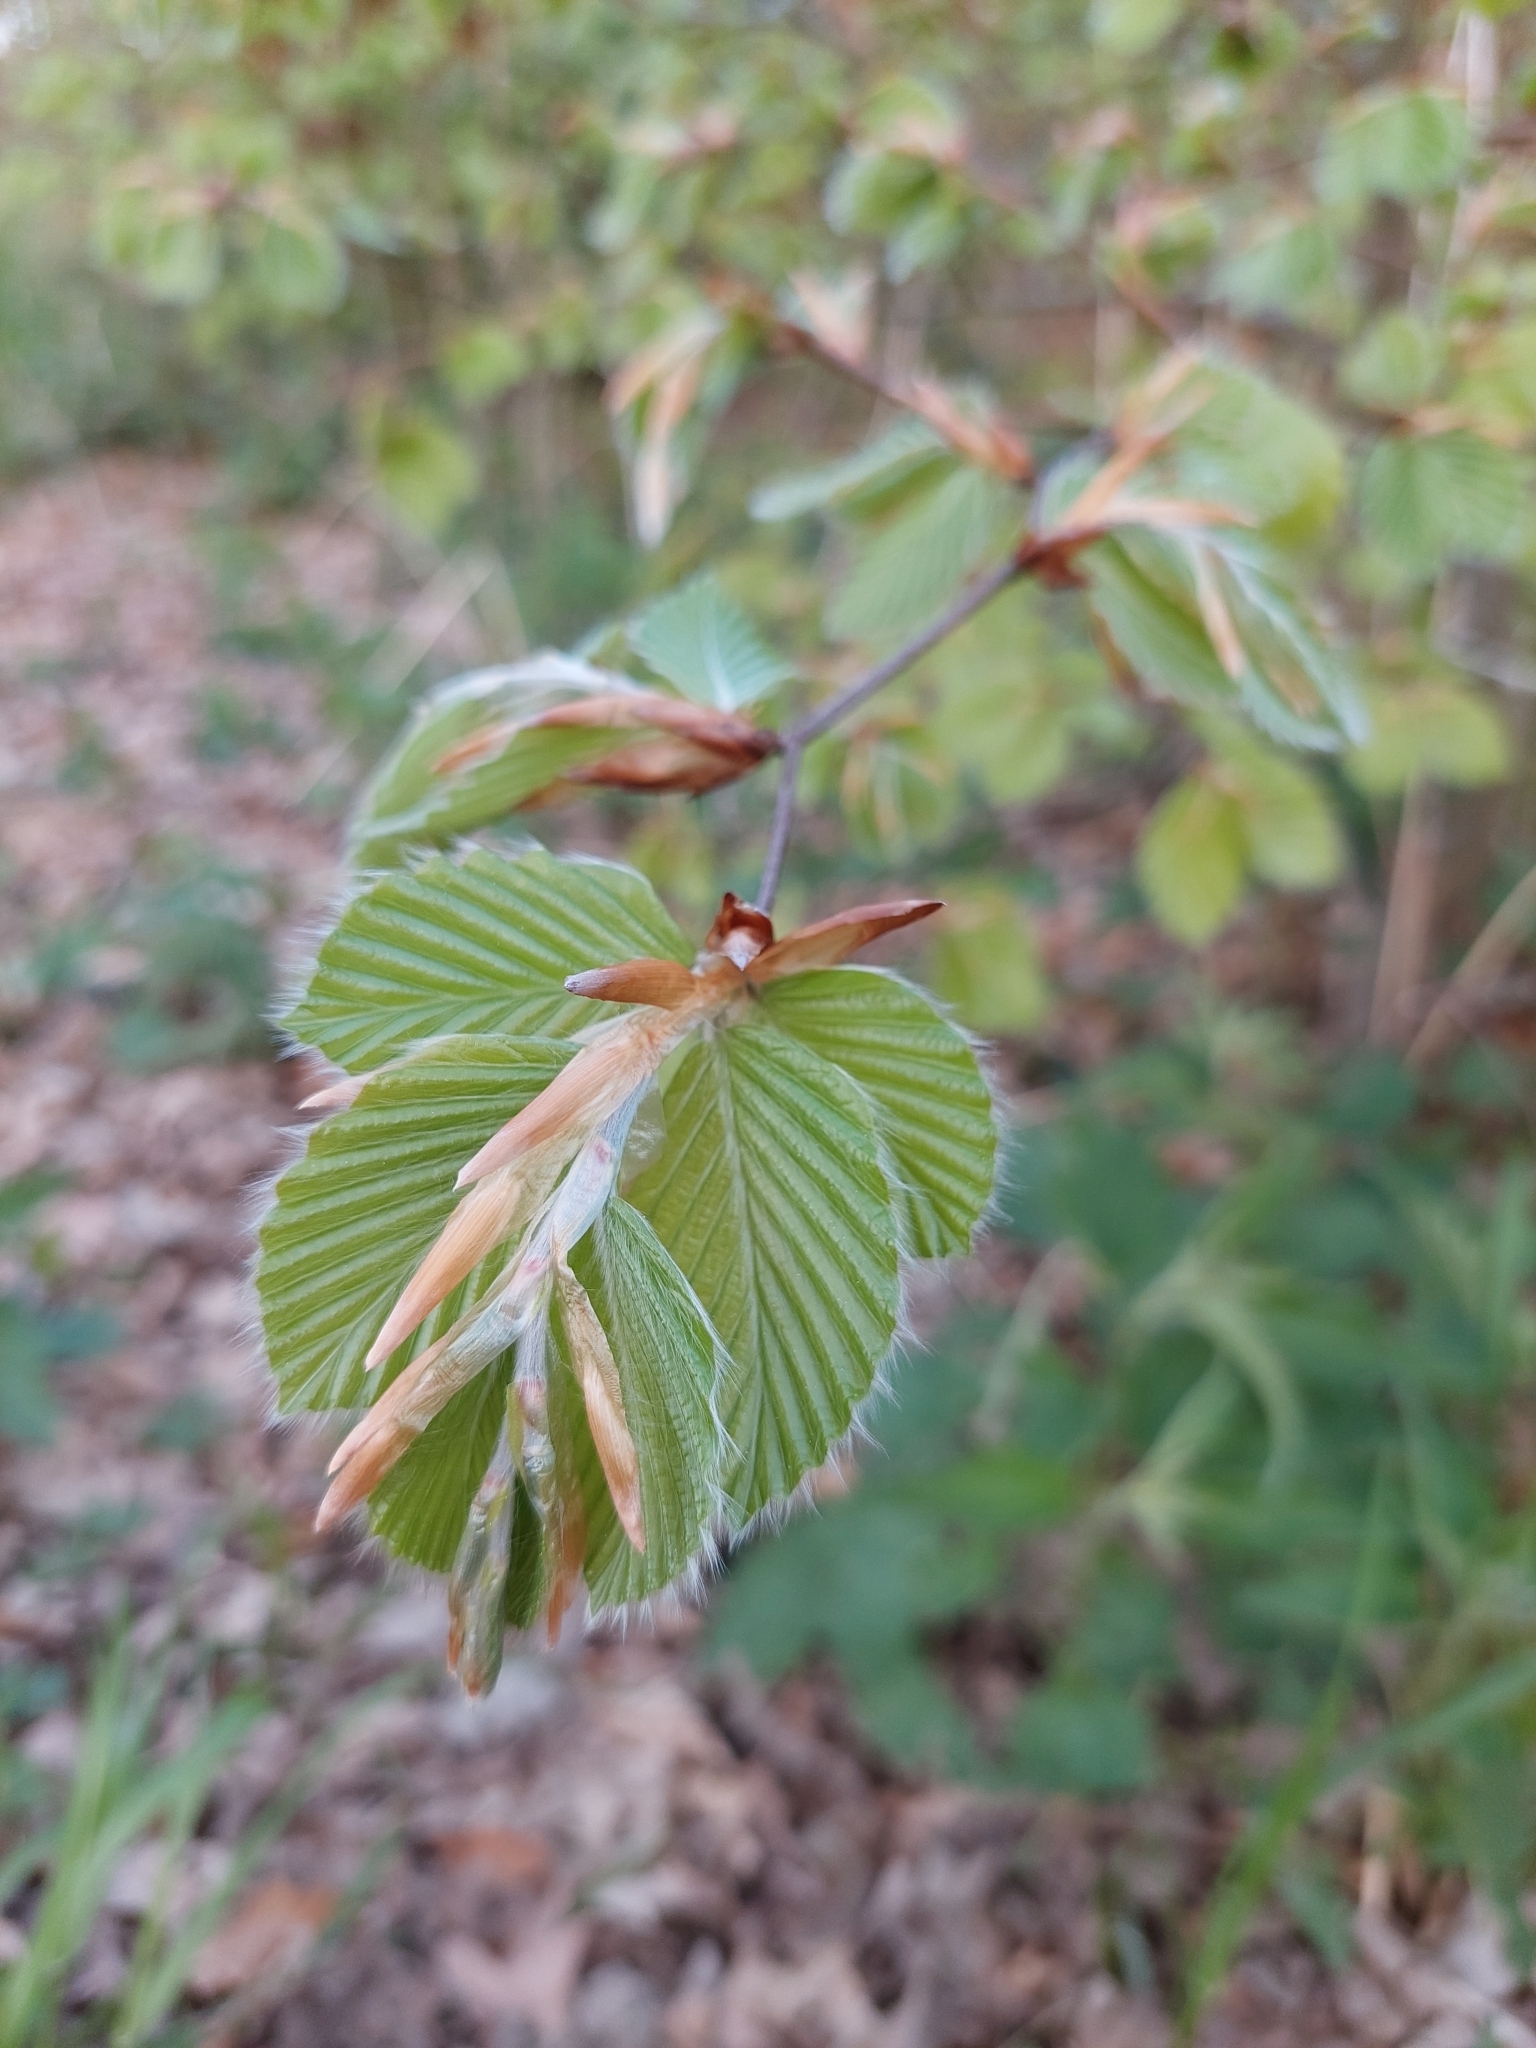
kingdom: Plantae
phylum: Tracheophyta
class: Magnoliopsida
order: Fagales
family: Fagaceae
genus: Fagus
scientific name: Fagus sylvatica
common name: Beech
